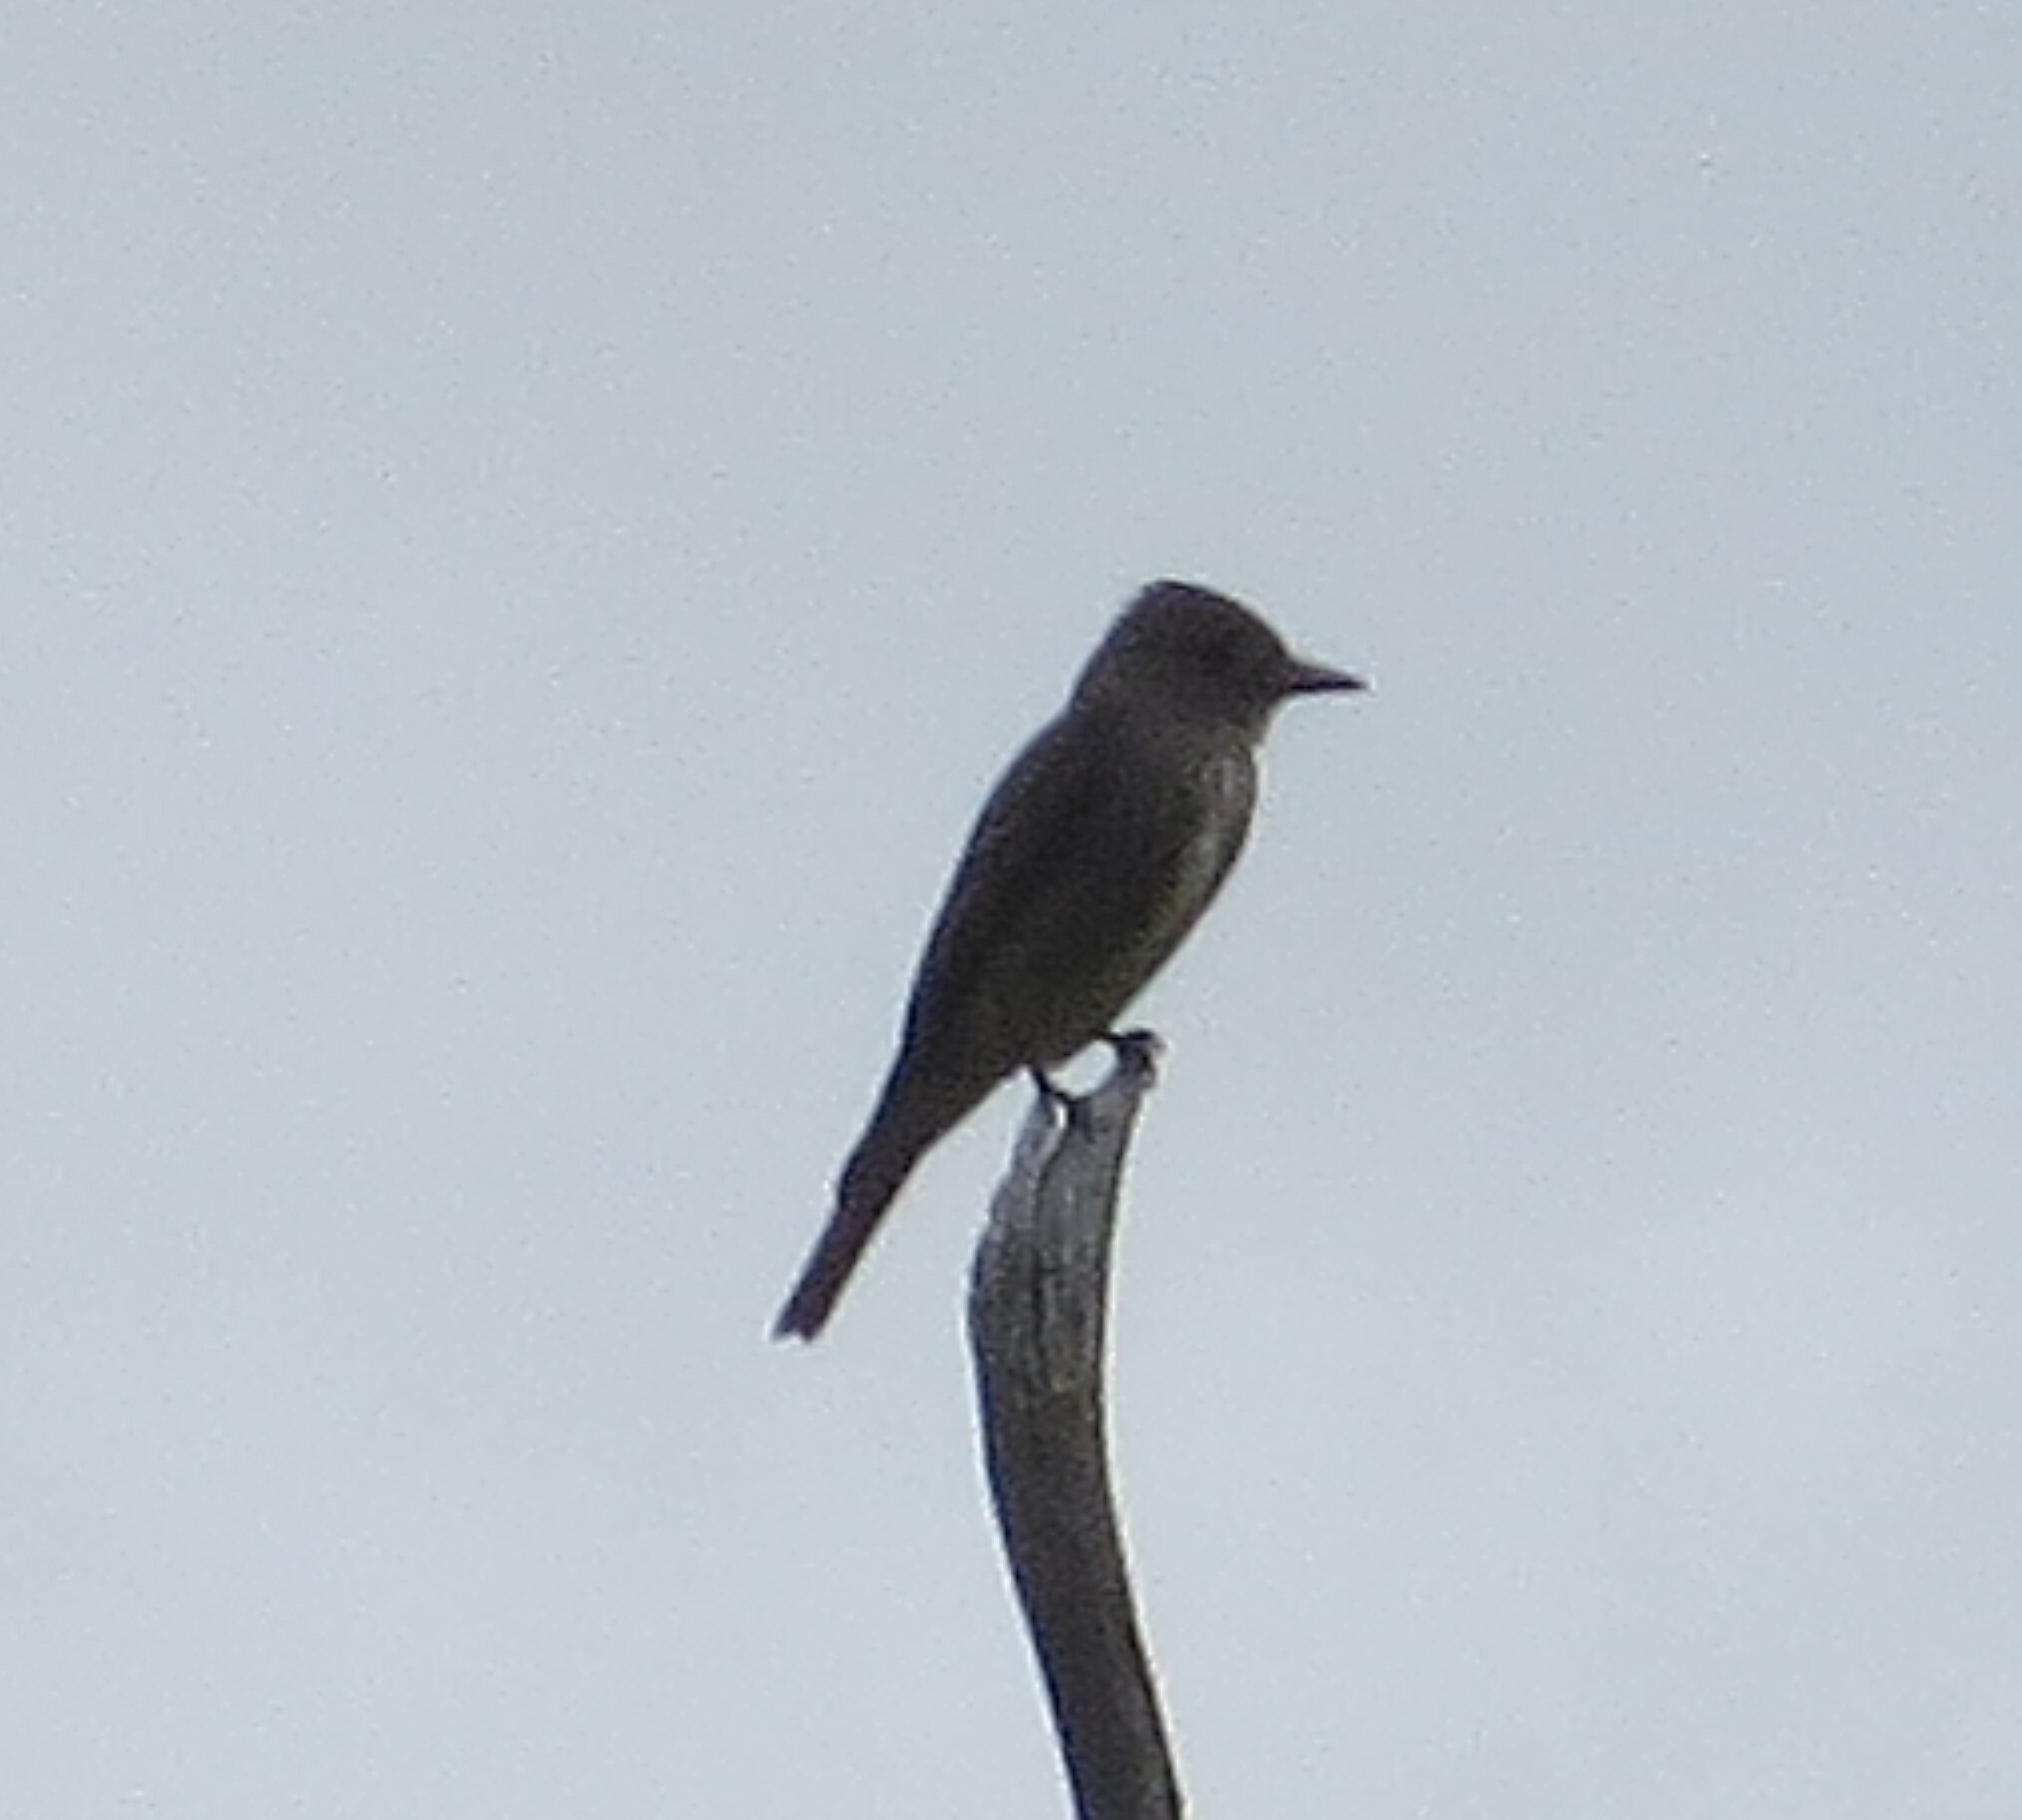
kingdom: Animalia
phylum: Chordata
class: Aves
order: Passeriformes
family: Tyrannidae
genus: Contopus
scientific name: Contopus cooperi
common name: Olive-sided flycatcher
